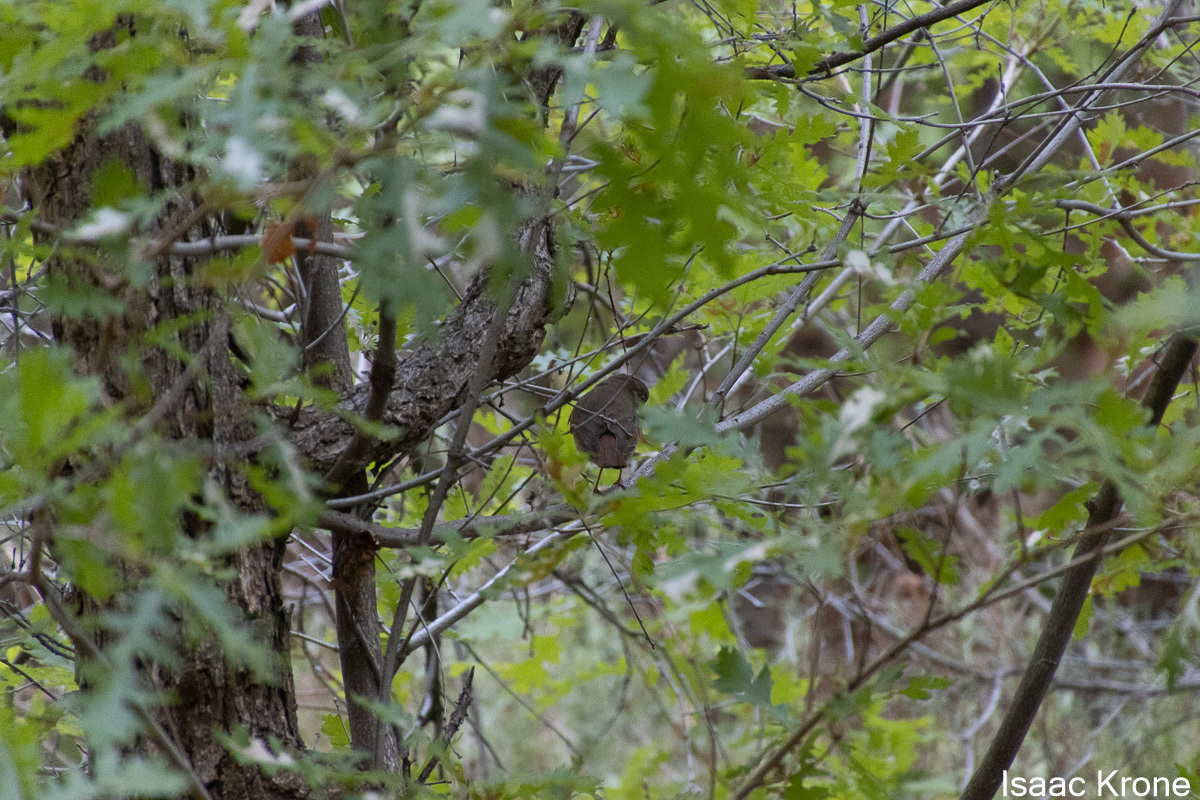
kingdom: Animalia
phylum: Chordata
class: Aves
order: Passeriformes
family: Turdidae
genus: Catharus
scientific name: Catharus guttatus
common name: Hermit thrush
